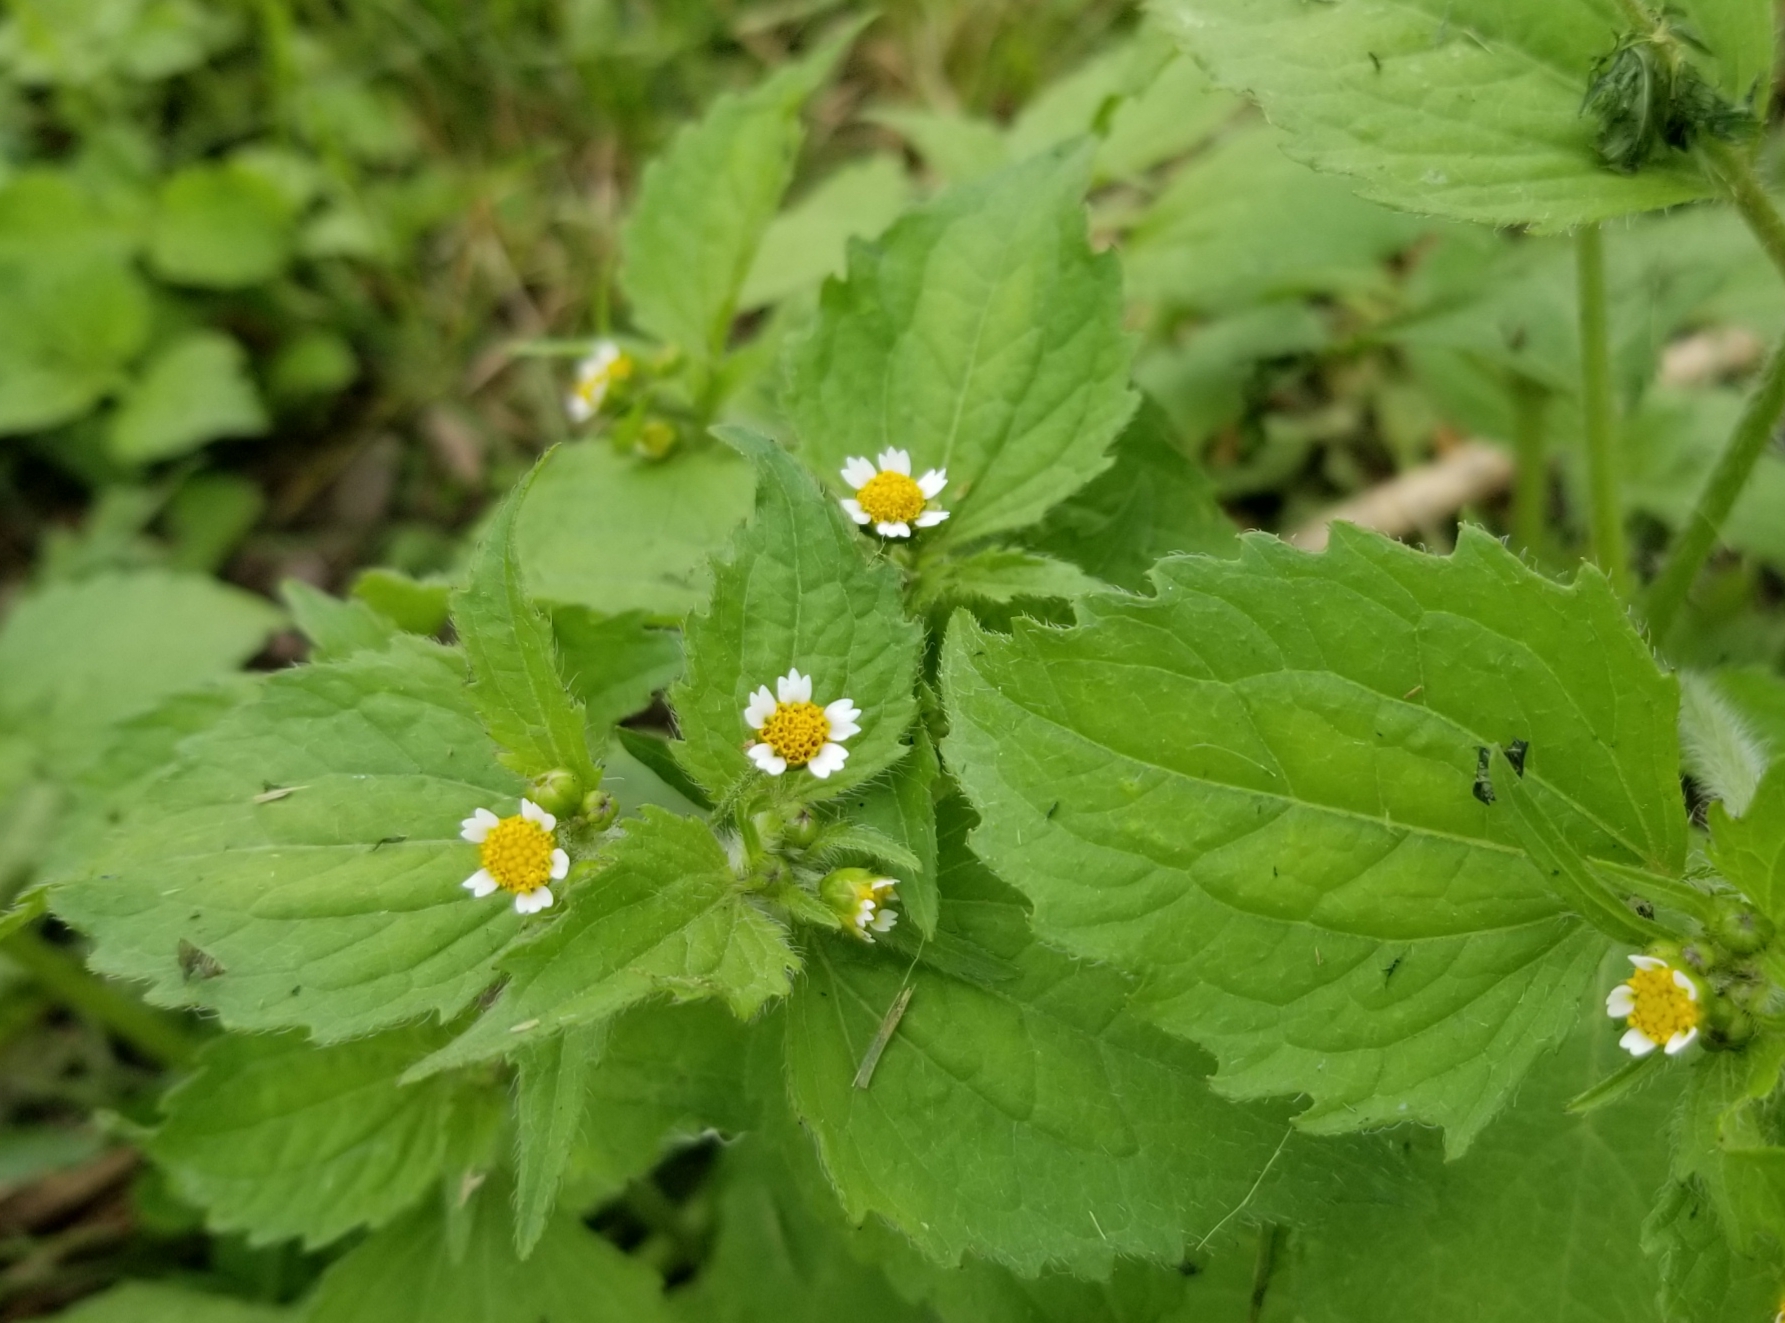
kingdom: Plantae
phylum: Tracheophyta
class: Magnoliopsida
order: Asterales
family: Asteraceae
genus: Galinsoga
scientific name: Galinsoga quadriradiata
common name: Shaggy soldier
